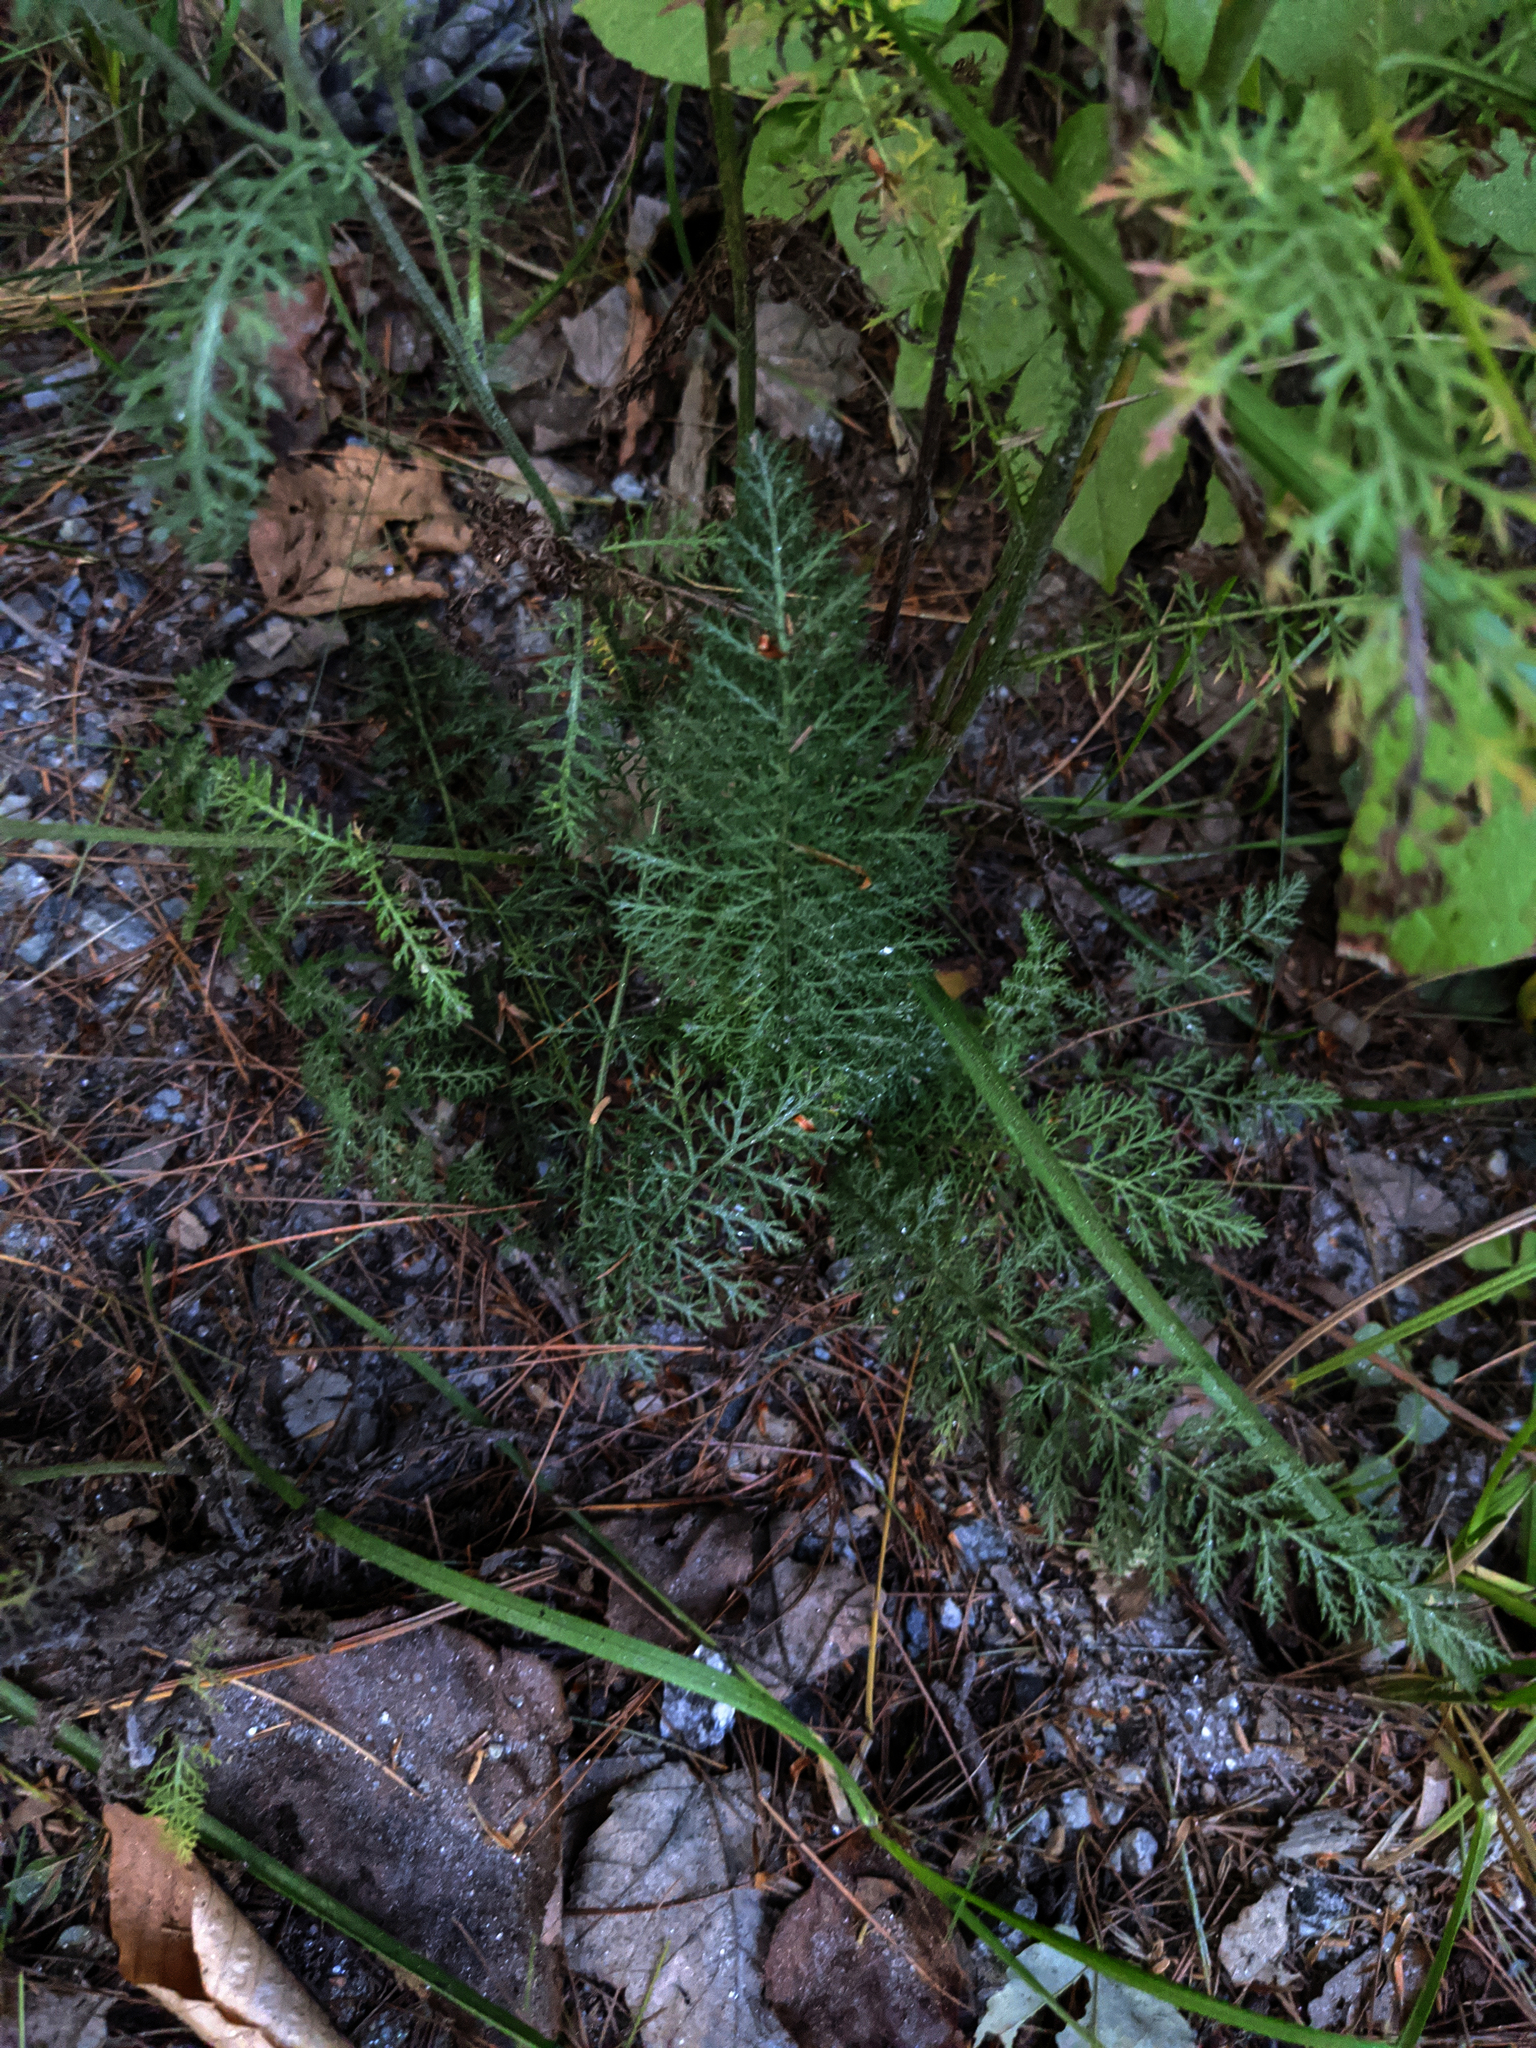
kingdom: Plantae
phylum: Tracheophyta
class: Magnoliopsida
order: Asterales
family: Asteraceae
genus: Achillea
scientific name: Achillea millefolium
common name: Yarrow
